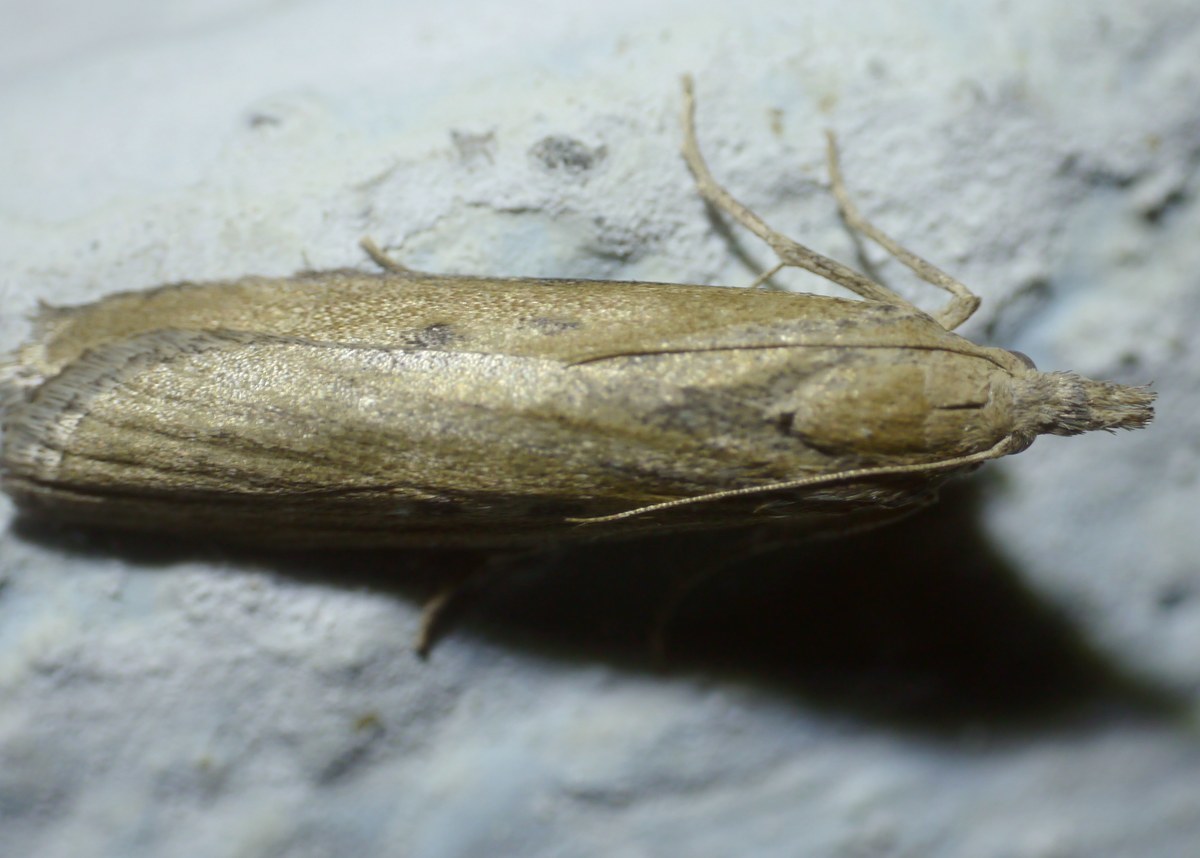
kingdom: Animalia
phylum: Arthropoda
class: Insecta
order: Lepidoptera
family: Pyralidae
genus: Aphomia
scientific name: Aphomia zelleri
